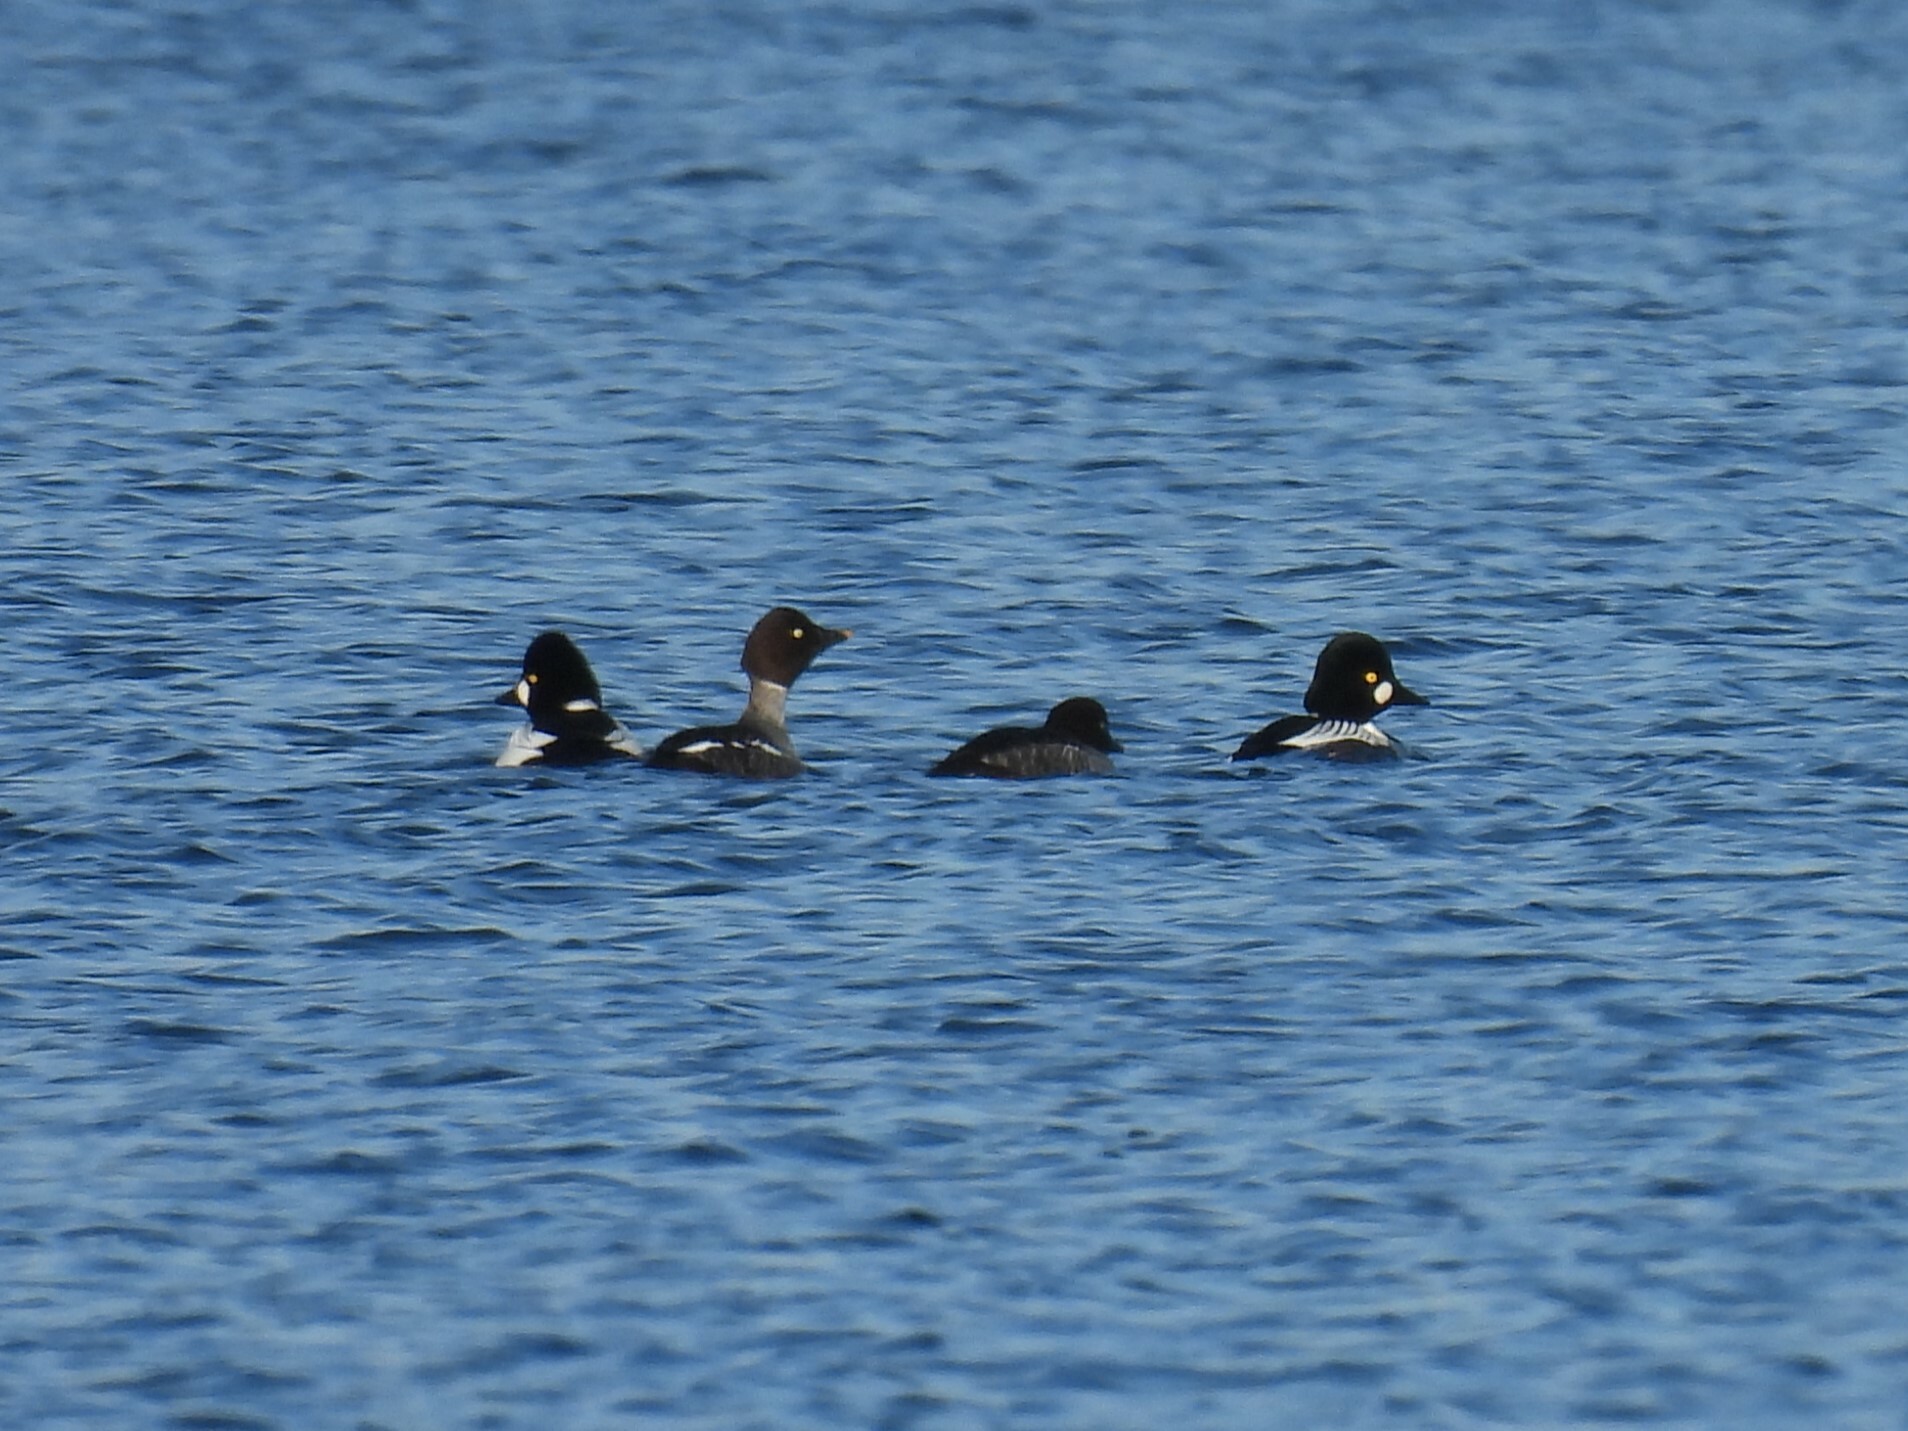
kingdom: Animalia
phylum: Chordata
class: Aves
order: Anseriformes
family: Anatidae
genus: Bucephala
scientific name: Bucephala clangula
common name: Common goldeneye
